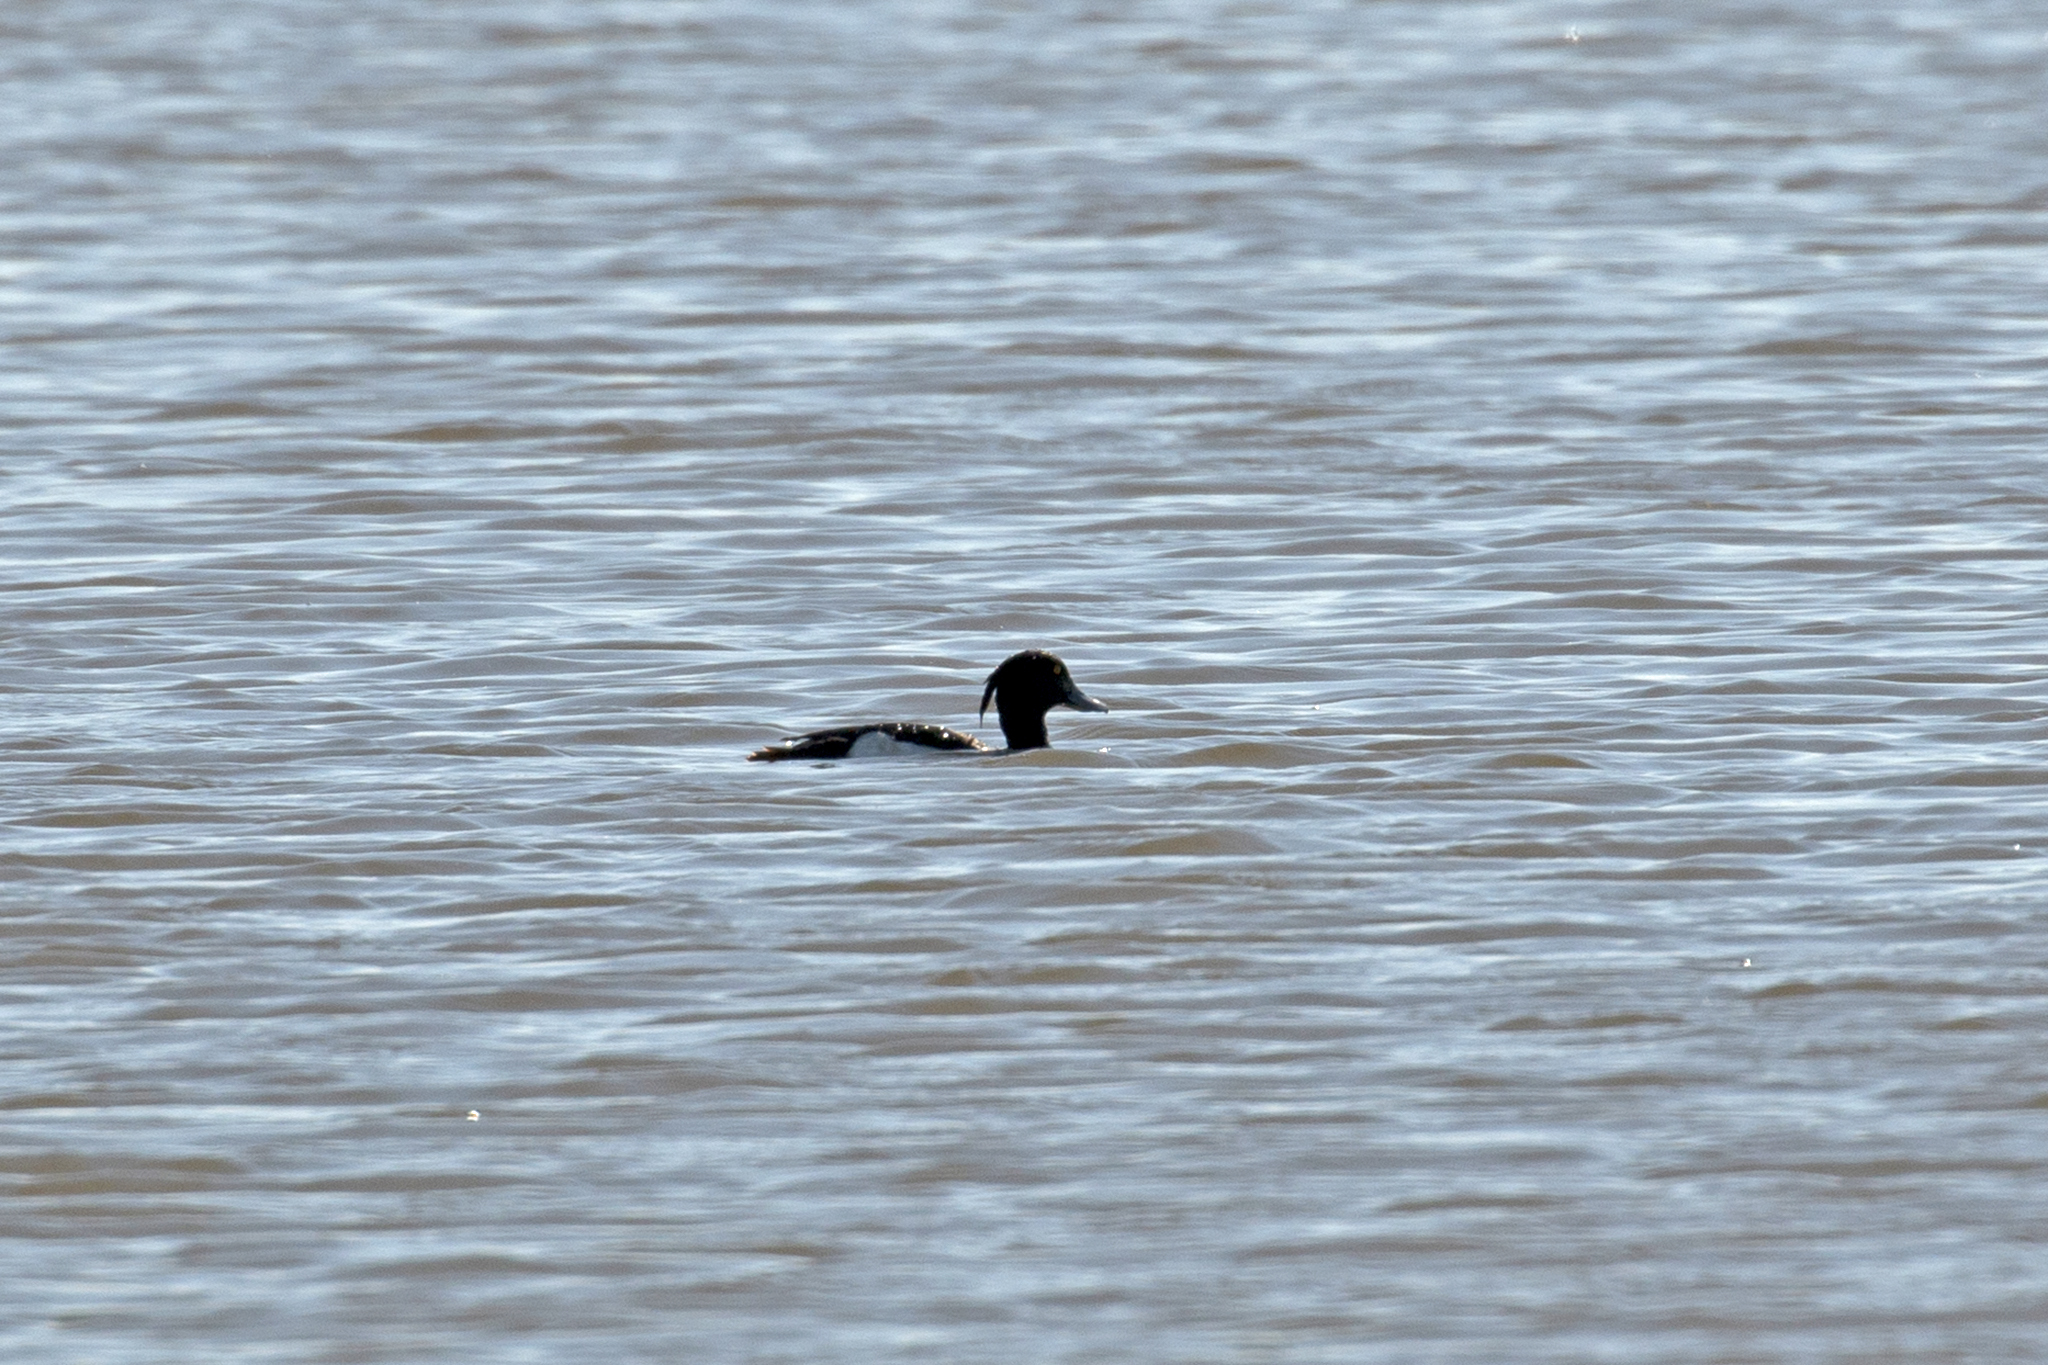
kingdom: Animalia
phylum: Chordata
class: Aves
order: Anseriformes
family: Anatidae
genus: Aythya
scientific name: Aythya fuligula
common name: Tufted duck
